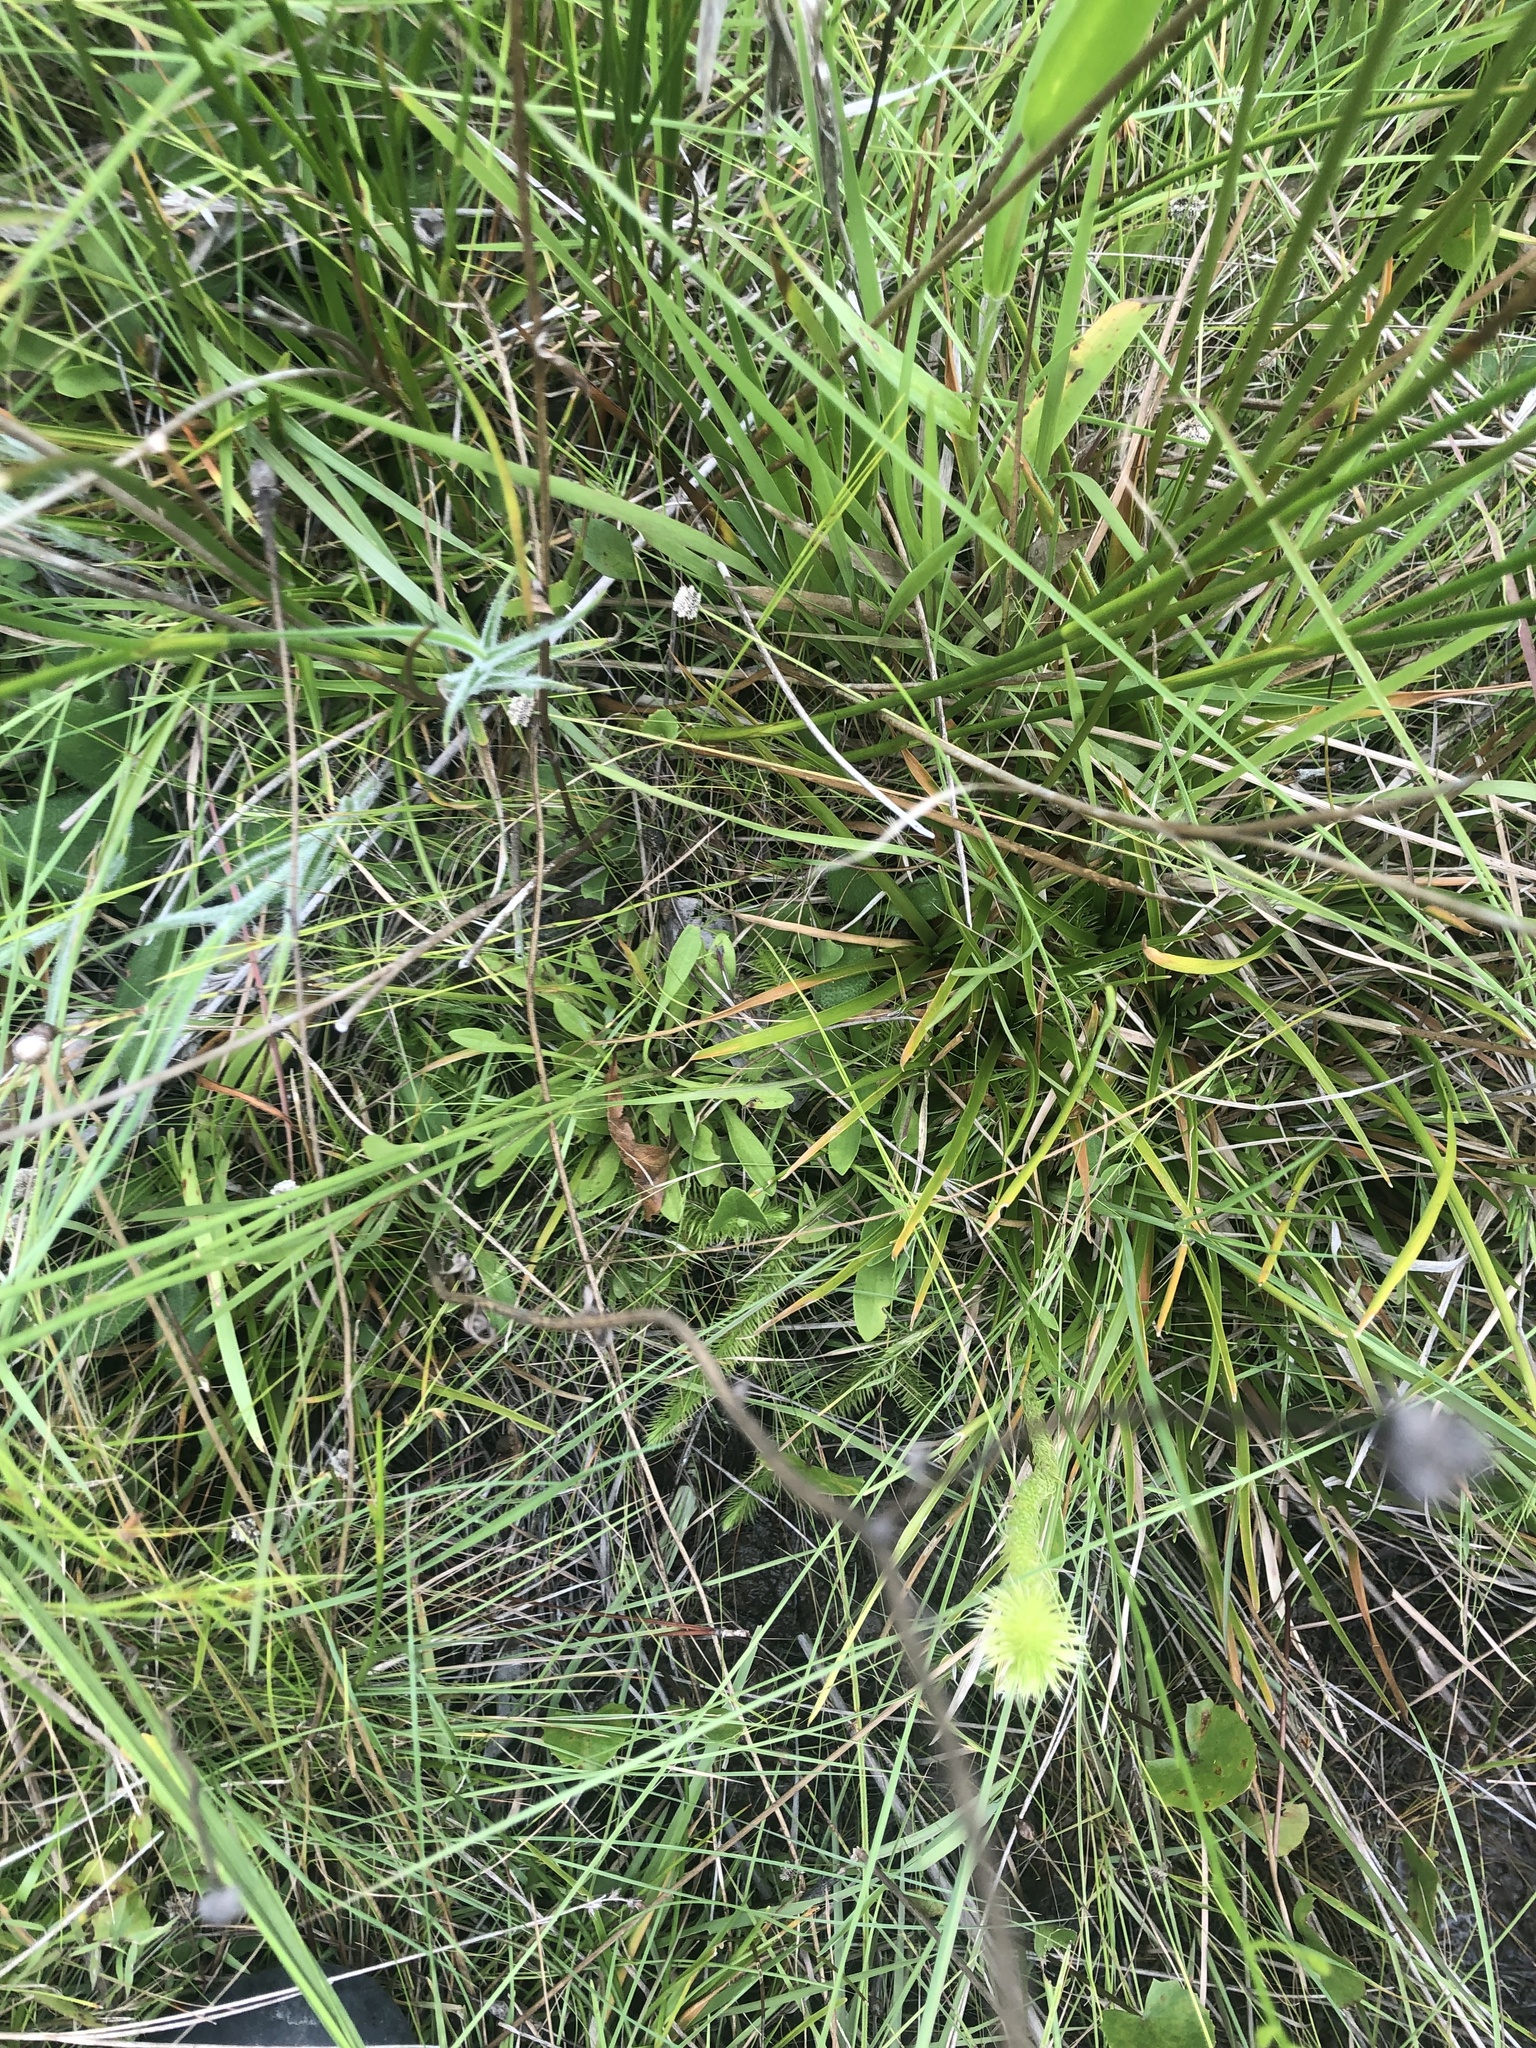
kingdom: Plantae
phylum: Tracheophyta
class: Magnoliopsida
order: Asterales
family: Asteraceae
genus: Bigelowia
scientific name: Bigelowia nudata
